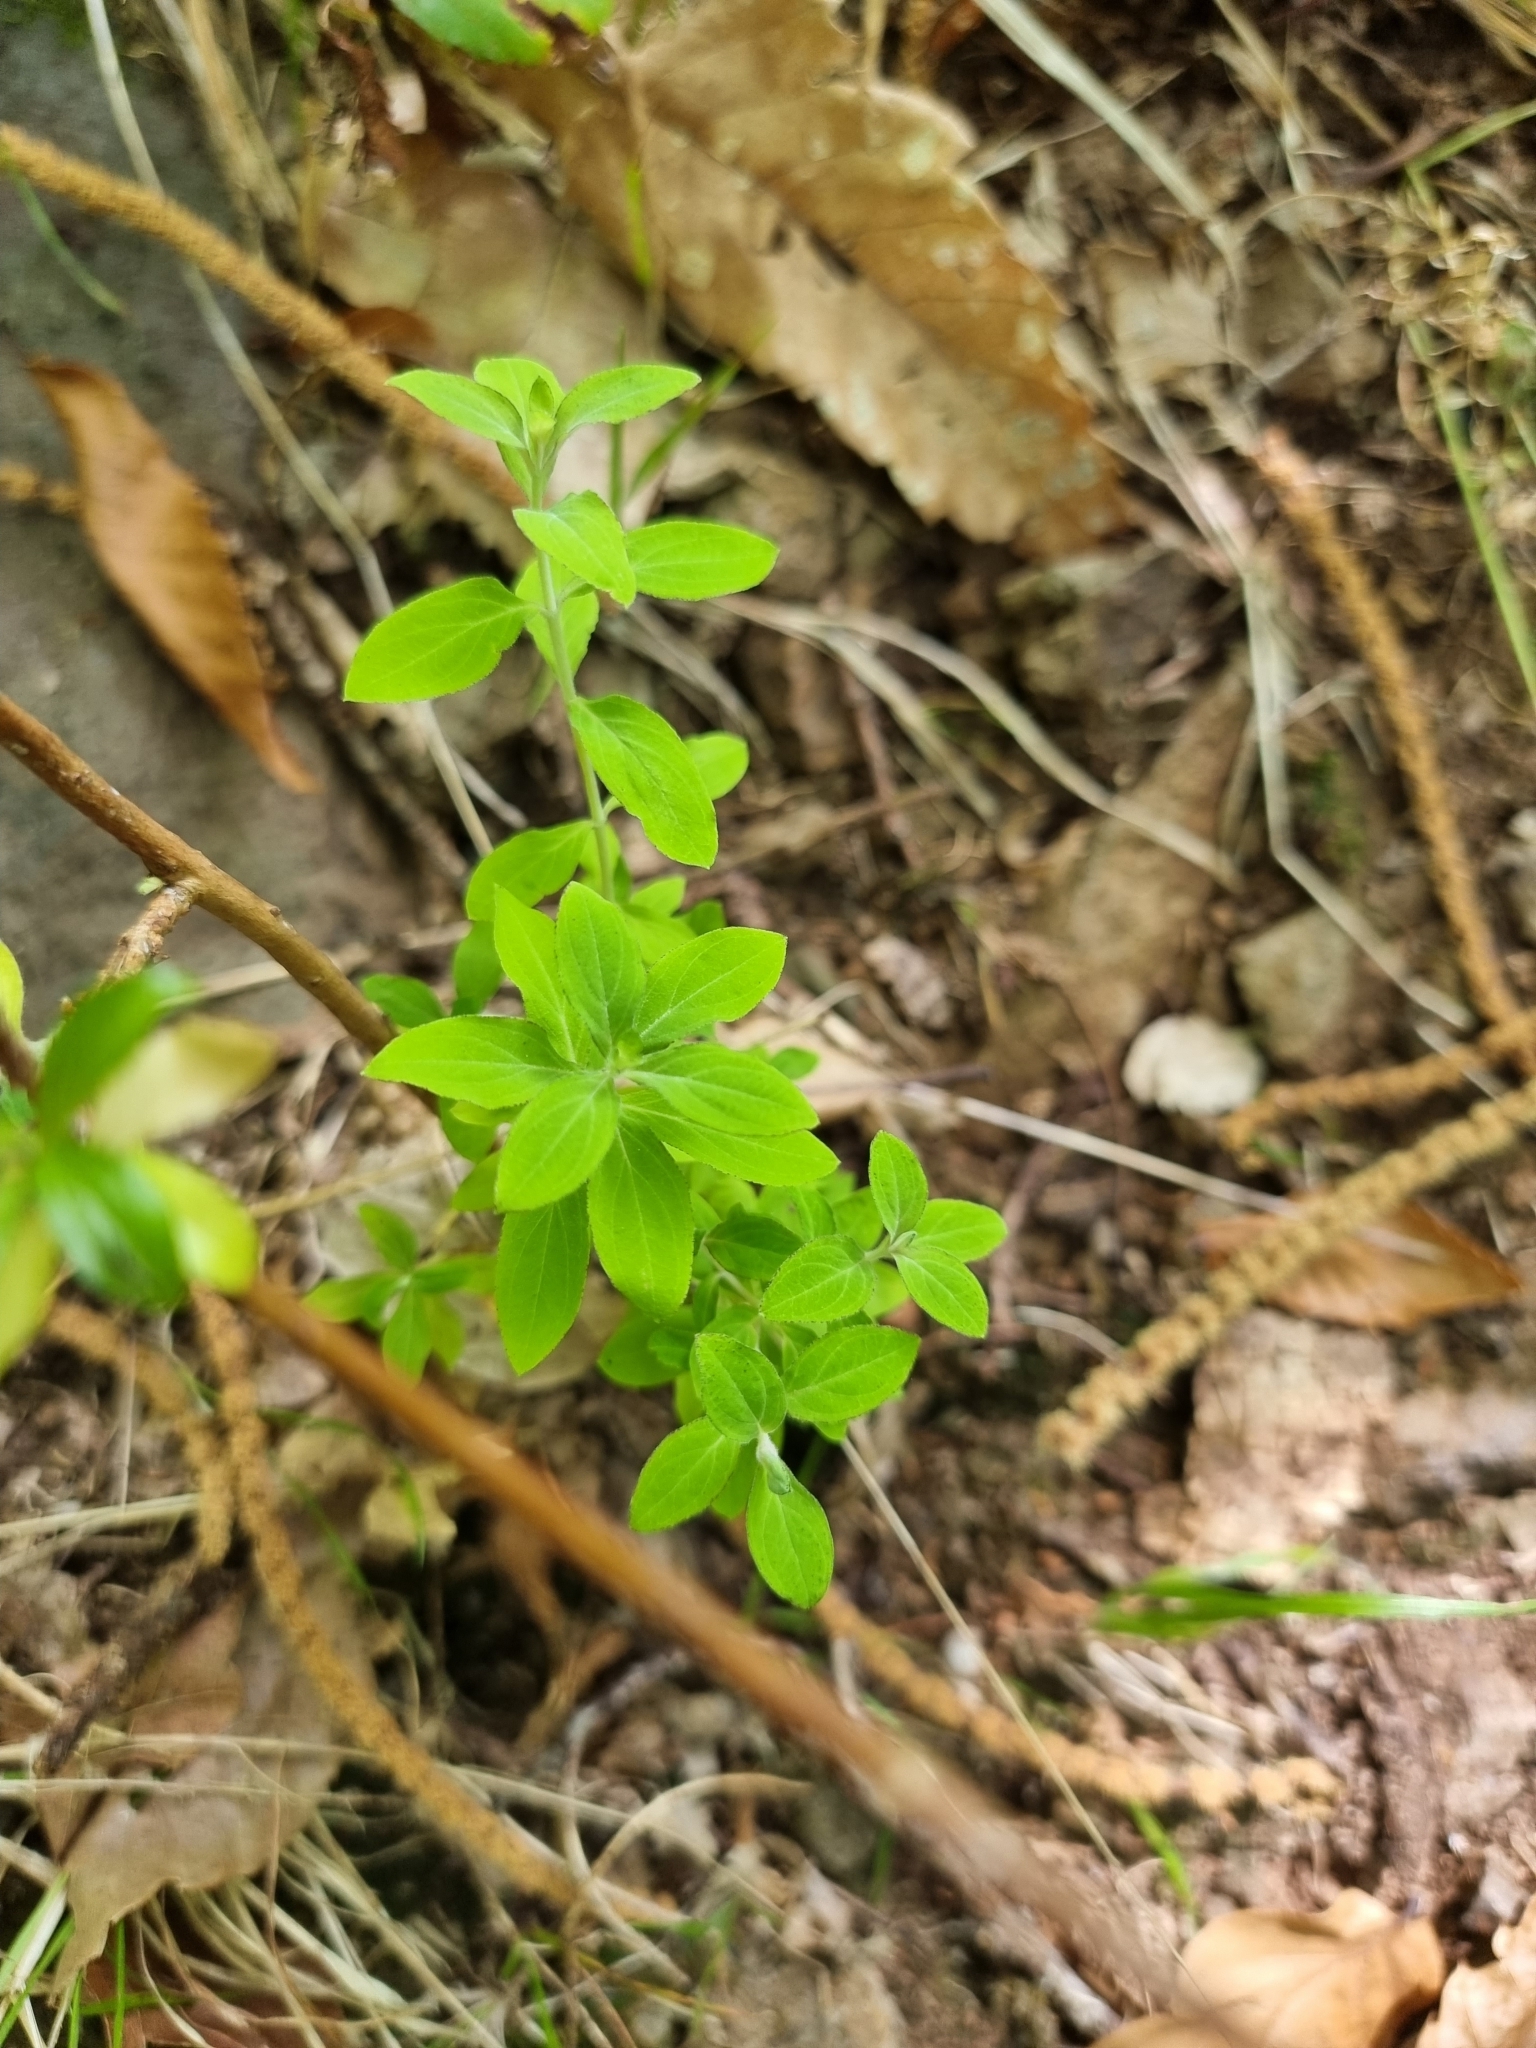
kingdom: Plantae
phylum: Tracheophyta
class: Magnoliopsida
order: Malpighiales
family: Hypericaceae
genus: Hypericum
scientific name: Hypericum glandulosum
